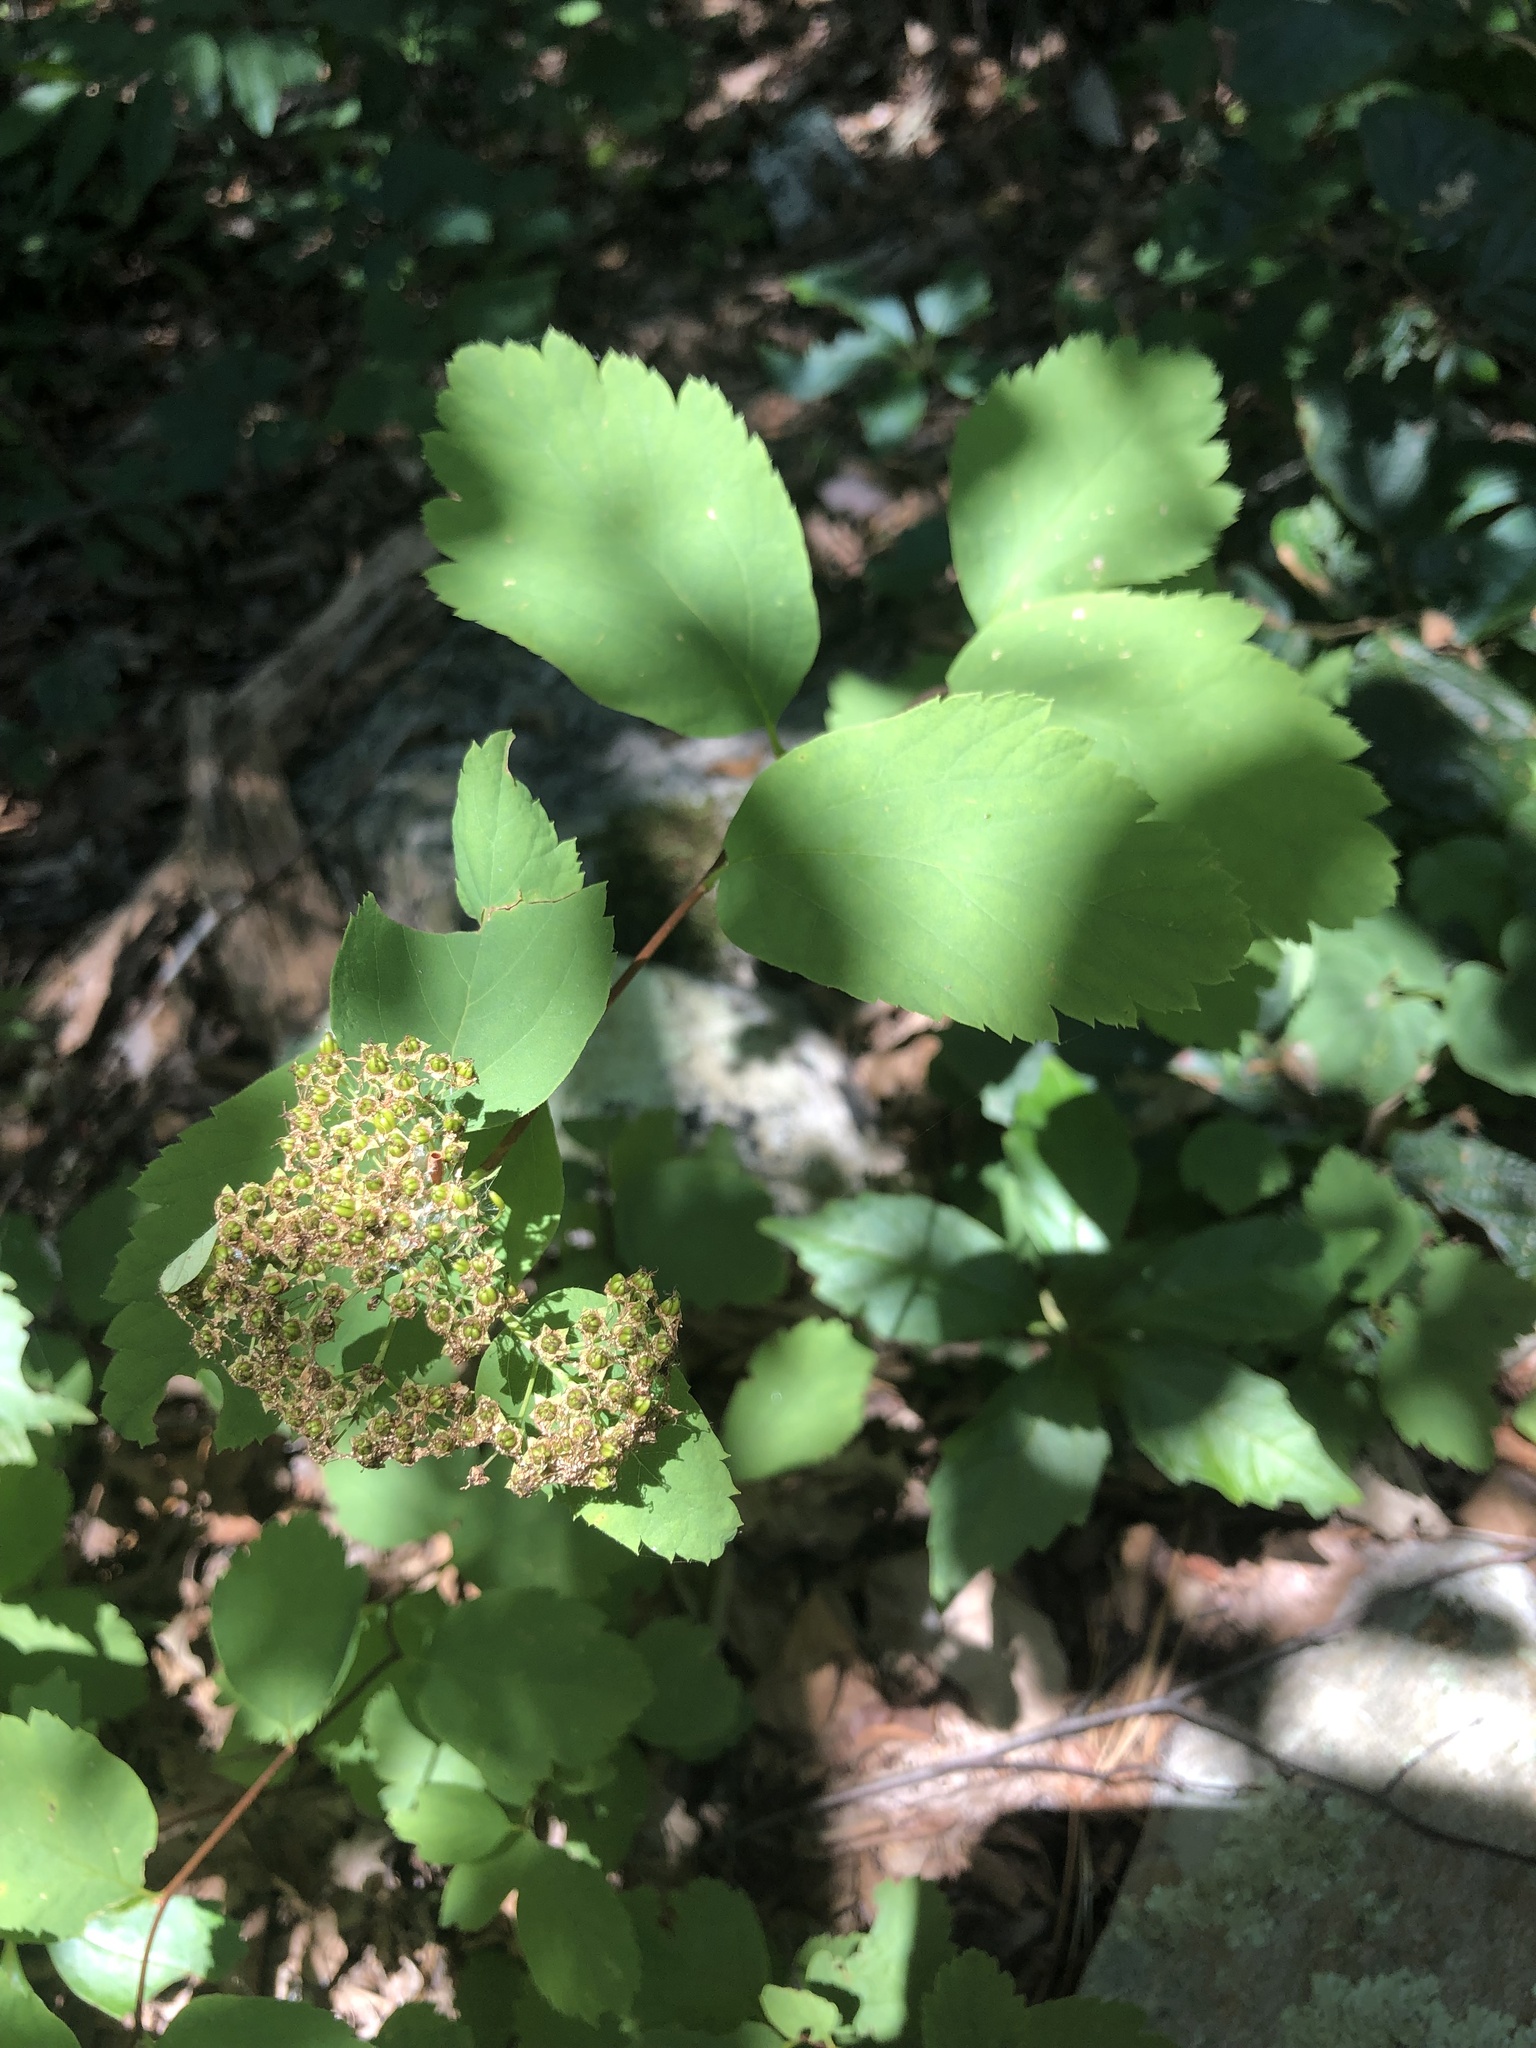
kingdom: Plantae
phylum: Tracheophyta
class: Magnoliopsida
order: Rosales
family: Rosaceae
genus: Spiraea
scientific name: Spiraea corymbosa
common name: Corymbed meadowsweet
